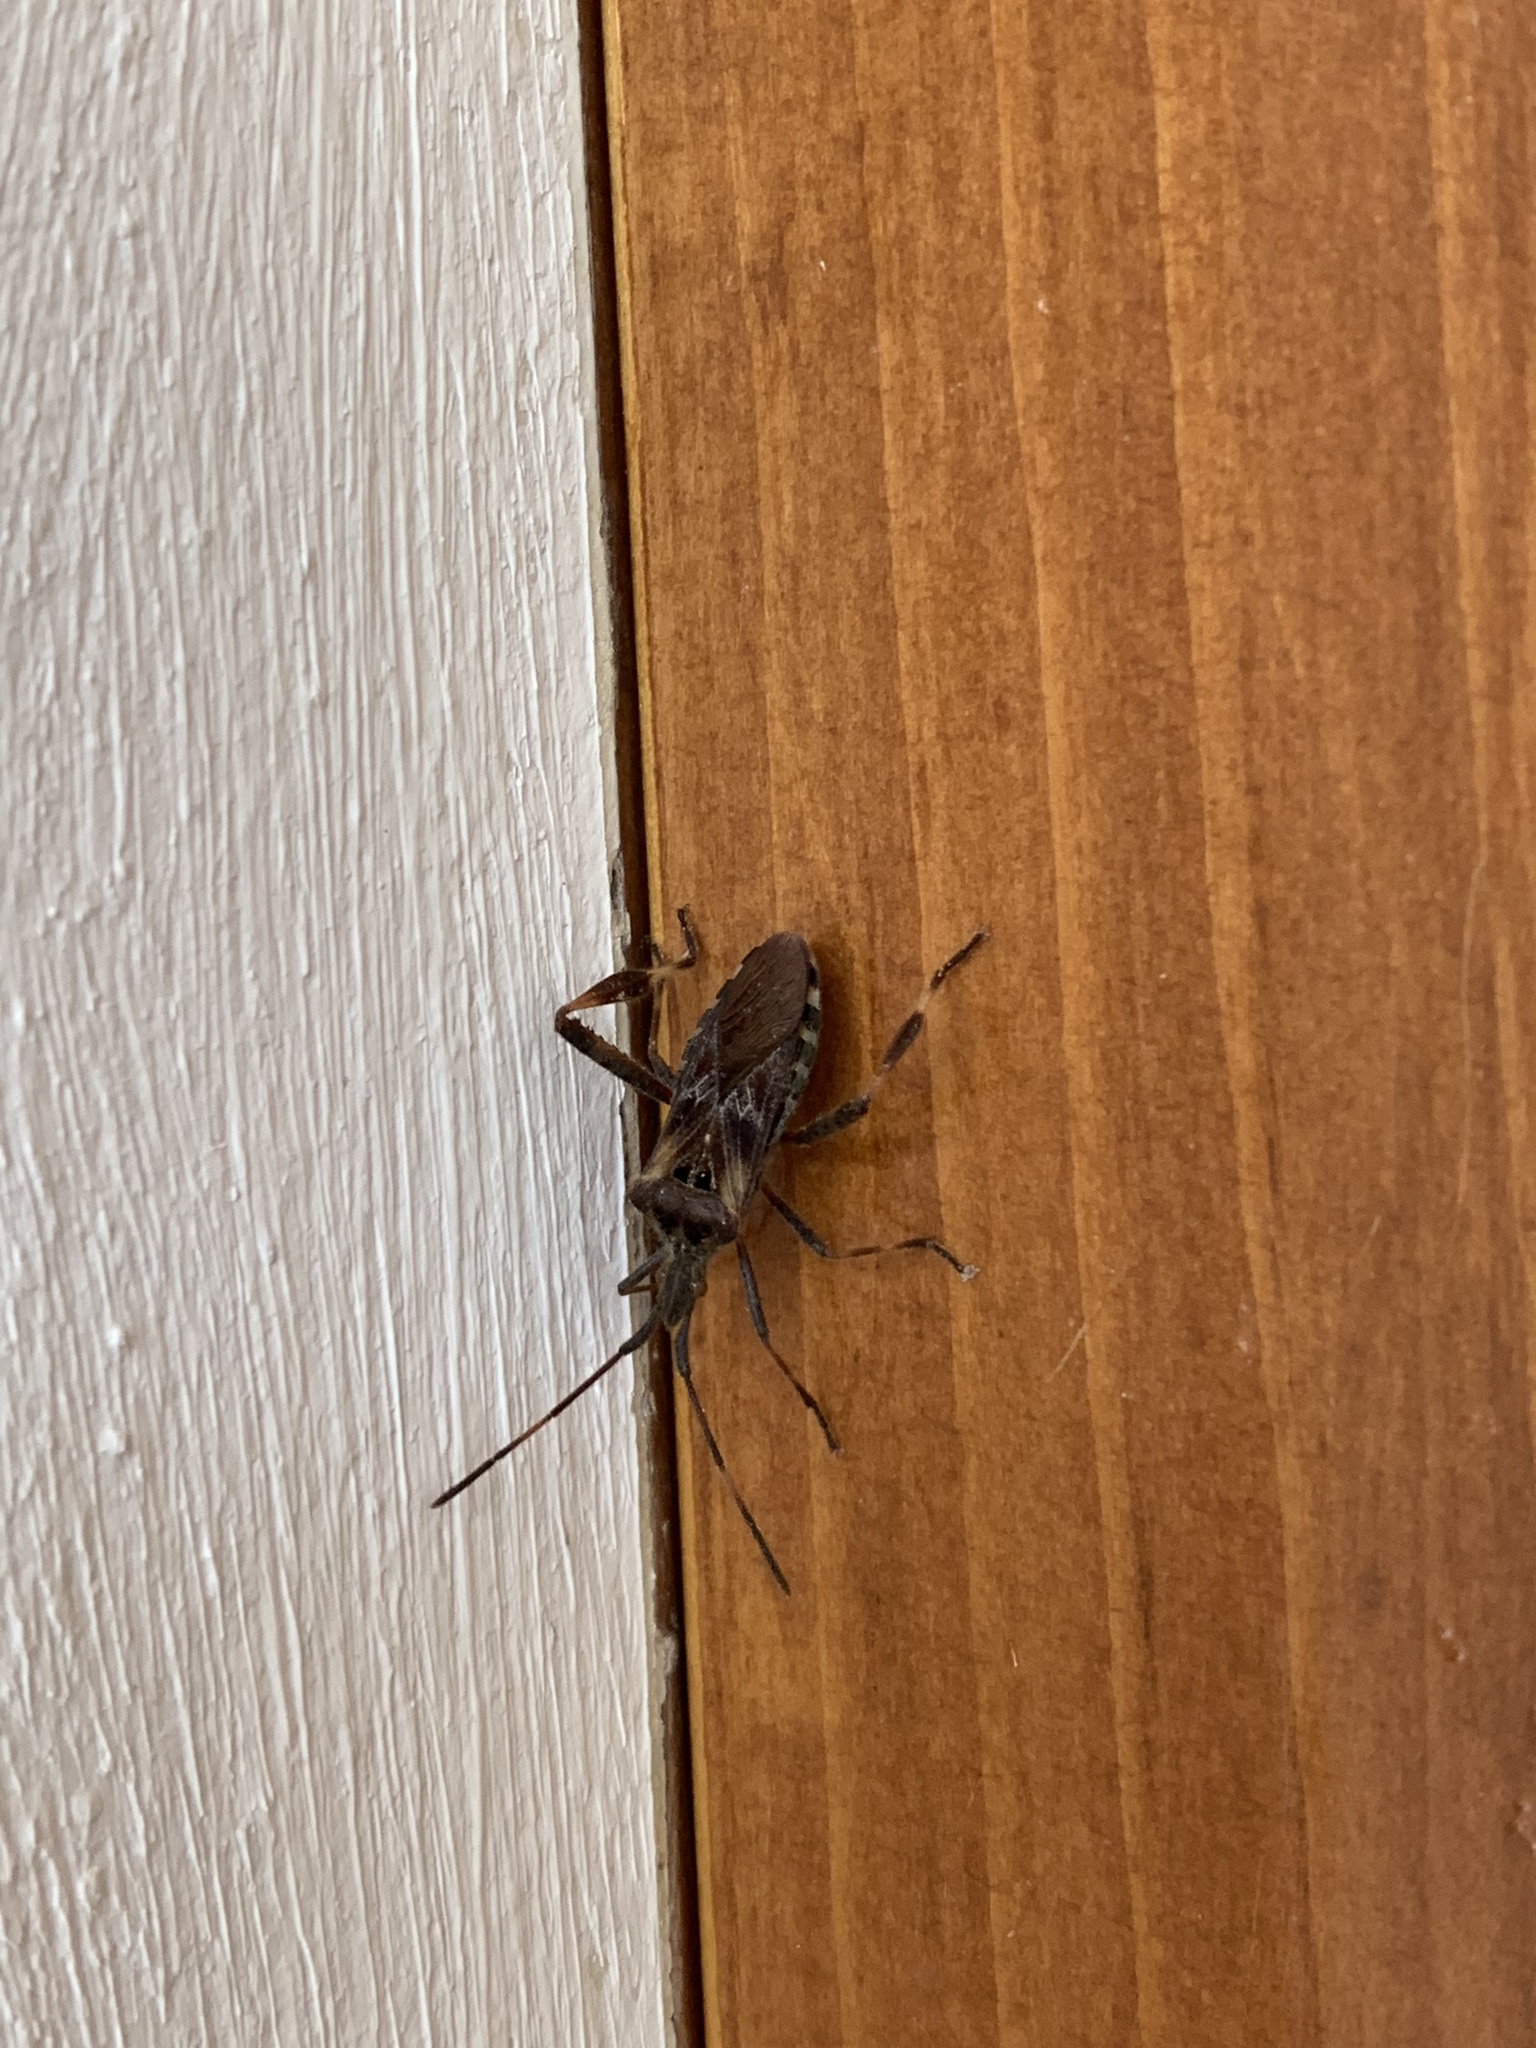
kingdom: Animalia
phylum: Arthropoda
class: Insecta
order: Hemiptera
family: Coreidae
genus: Leptoglossus
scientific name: Leptoglossus occidentalis
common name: Western conifer-seed bug
